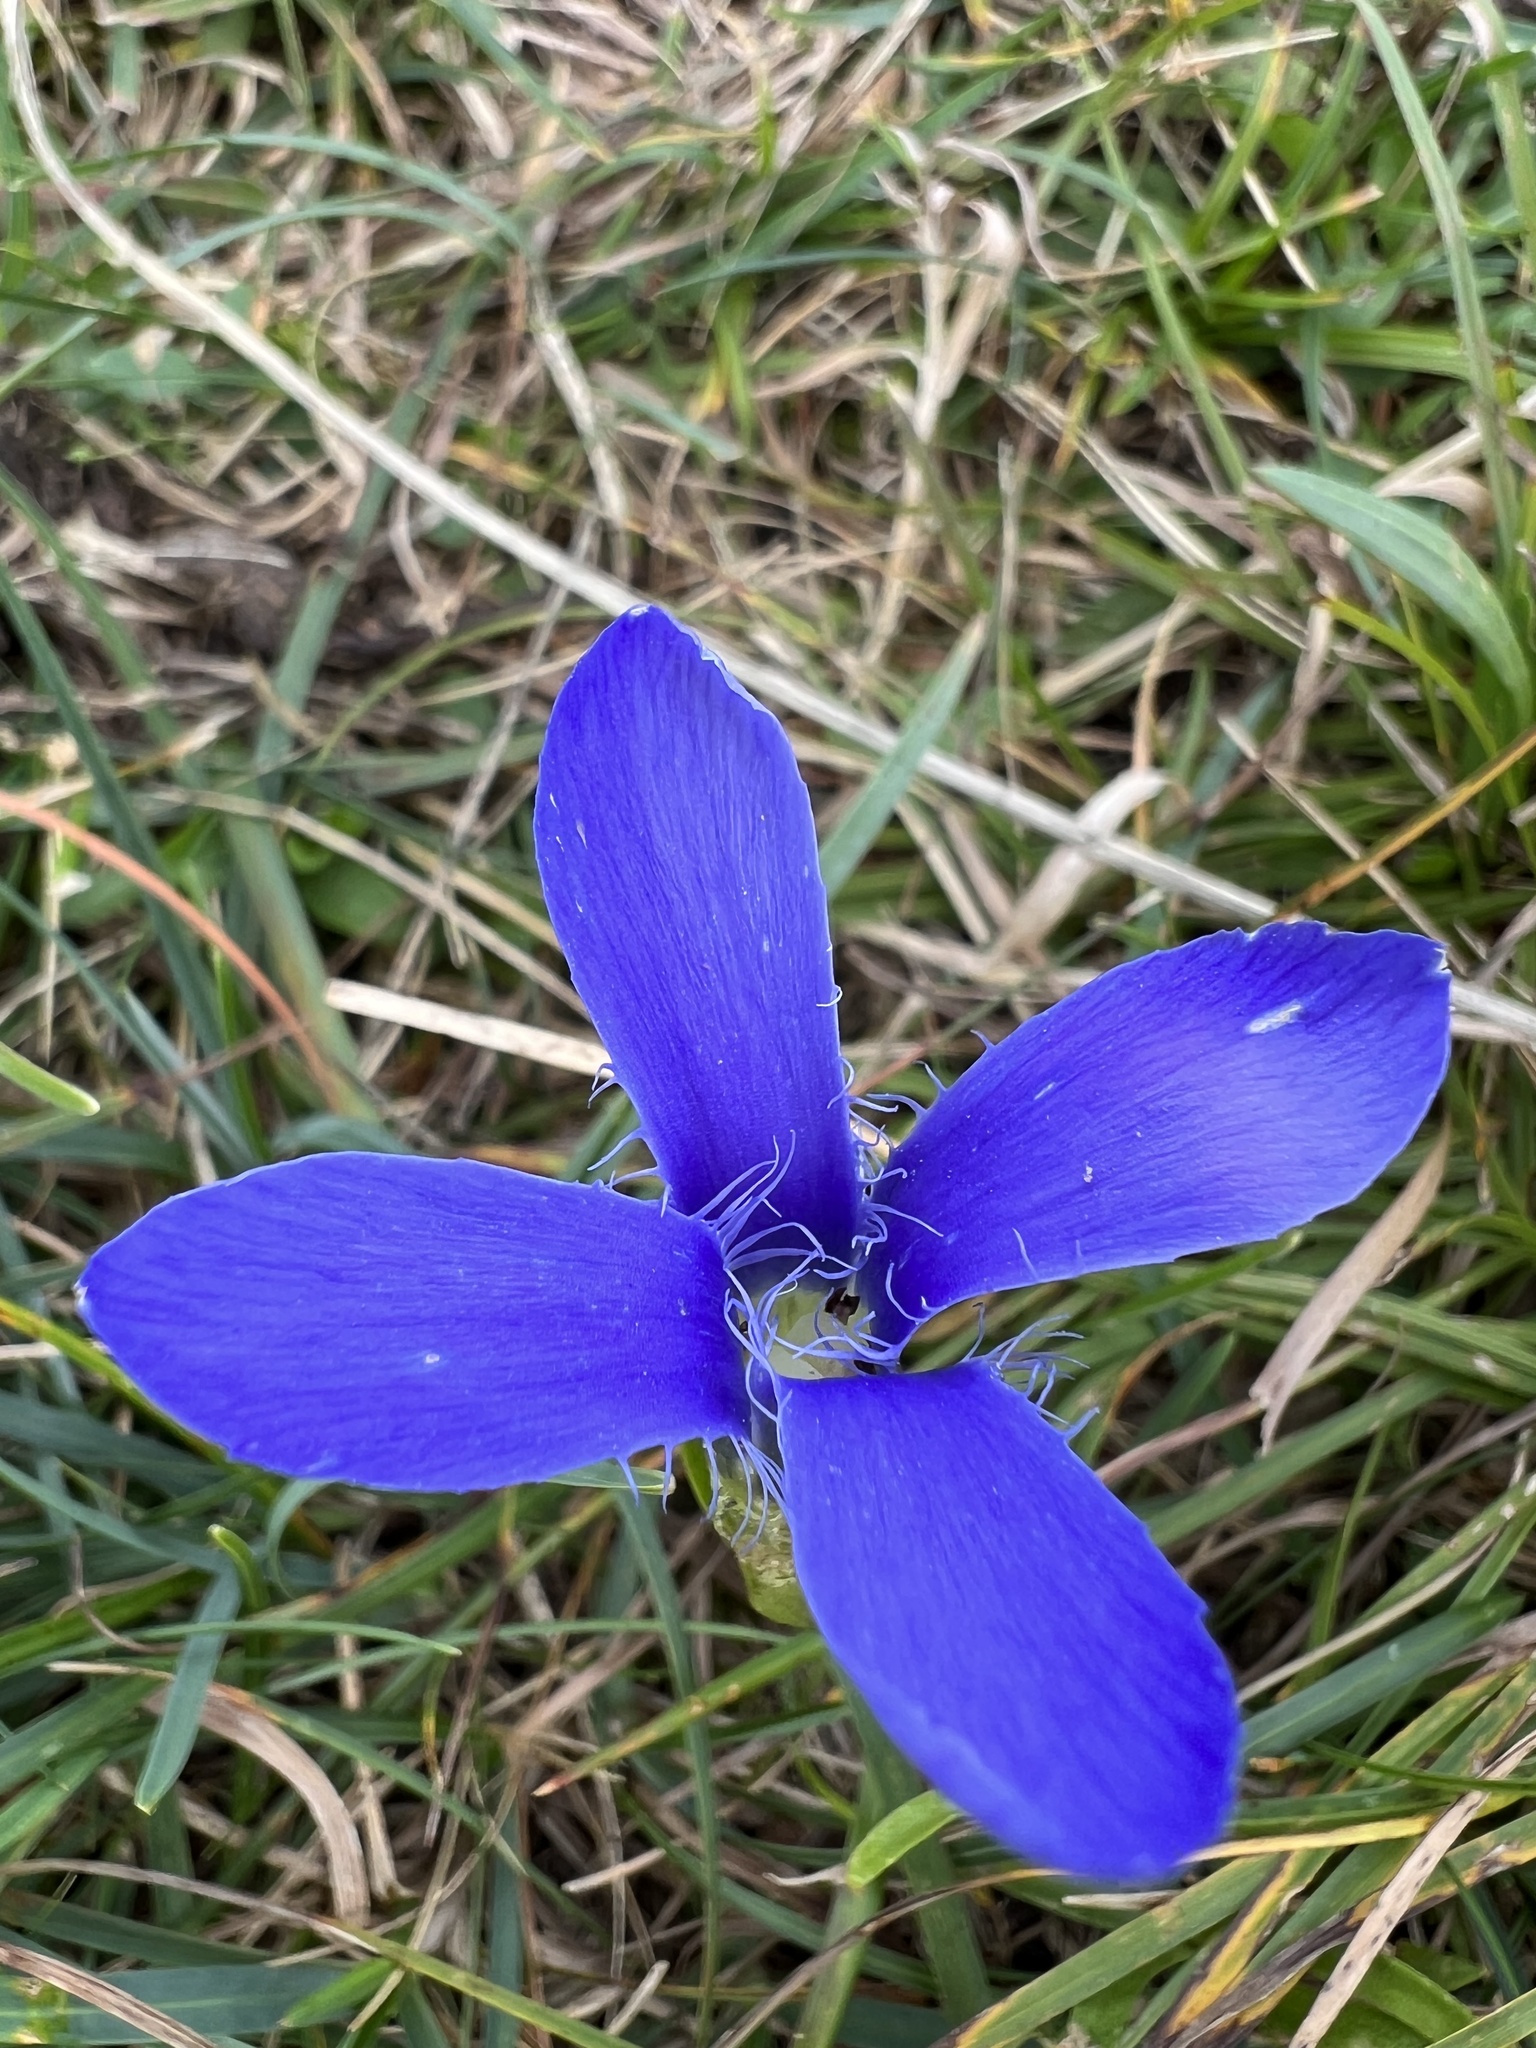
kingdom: Plantae
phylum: Tracheophyta
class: Magnoliopsida
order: Gentianales
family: Gentianaceae
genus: Gentianopsis
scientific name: Gentianopsis ciliata
